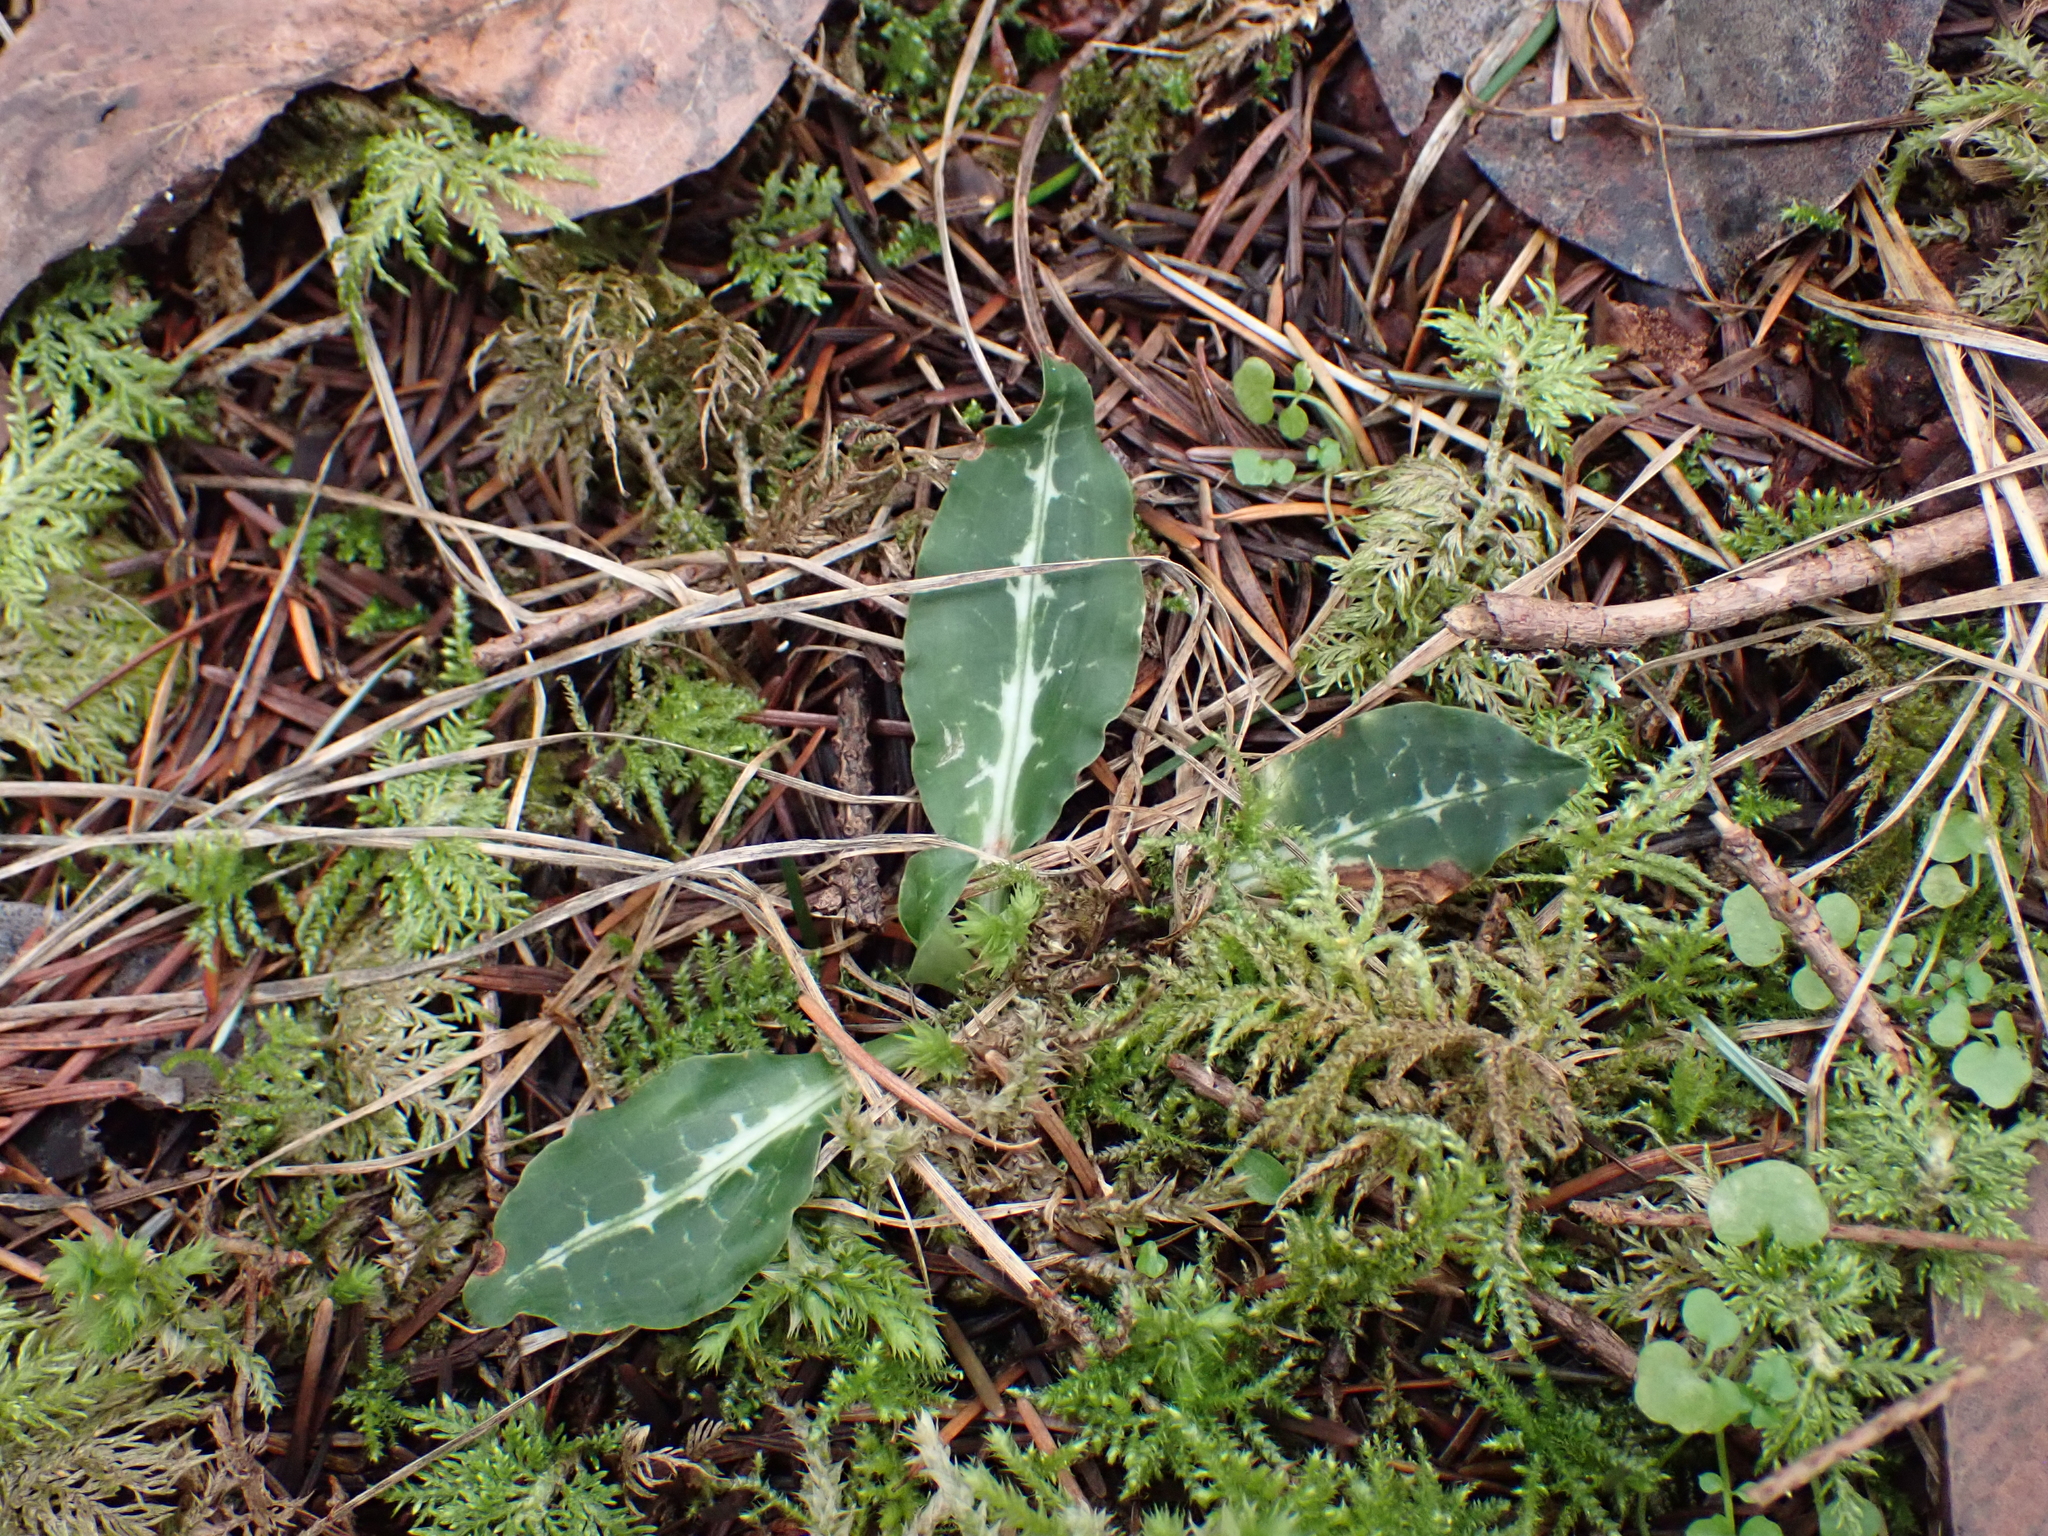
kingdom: Plantae
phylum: Tracheophyta
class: Liliopsida
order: Asparagales
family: Orchidaceae
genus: Goodyera
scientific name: Goodyera oblongifolia
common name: Giant rattlesnake-plantain
